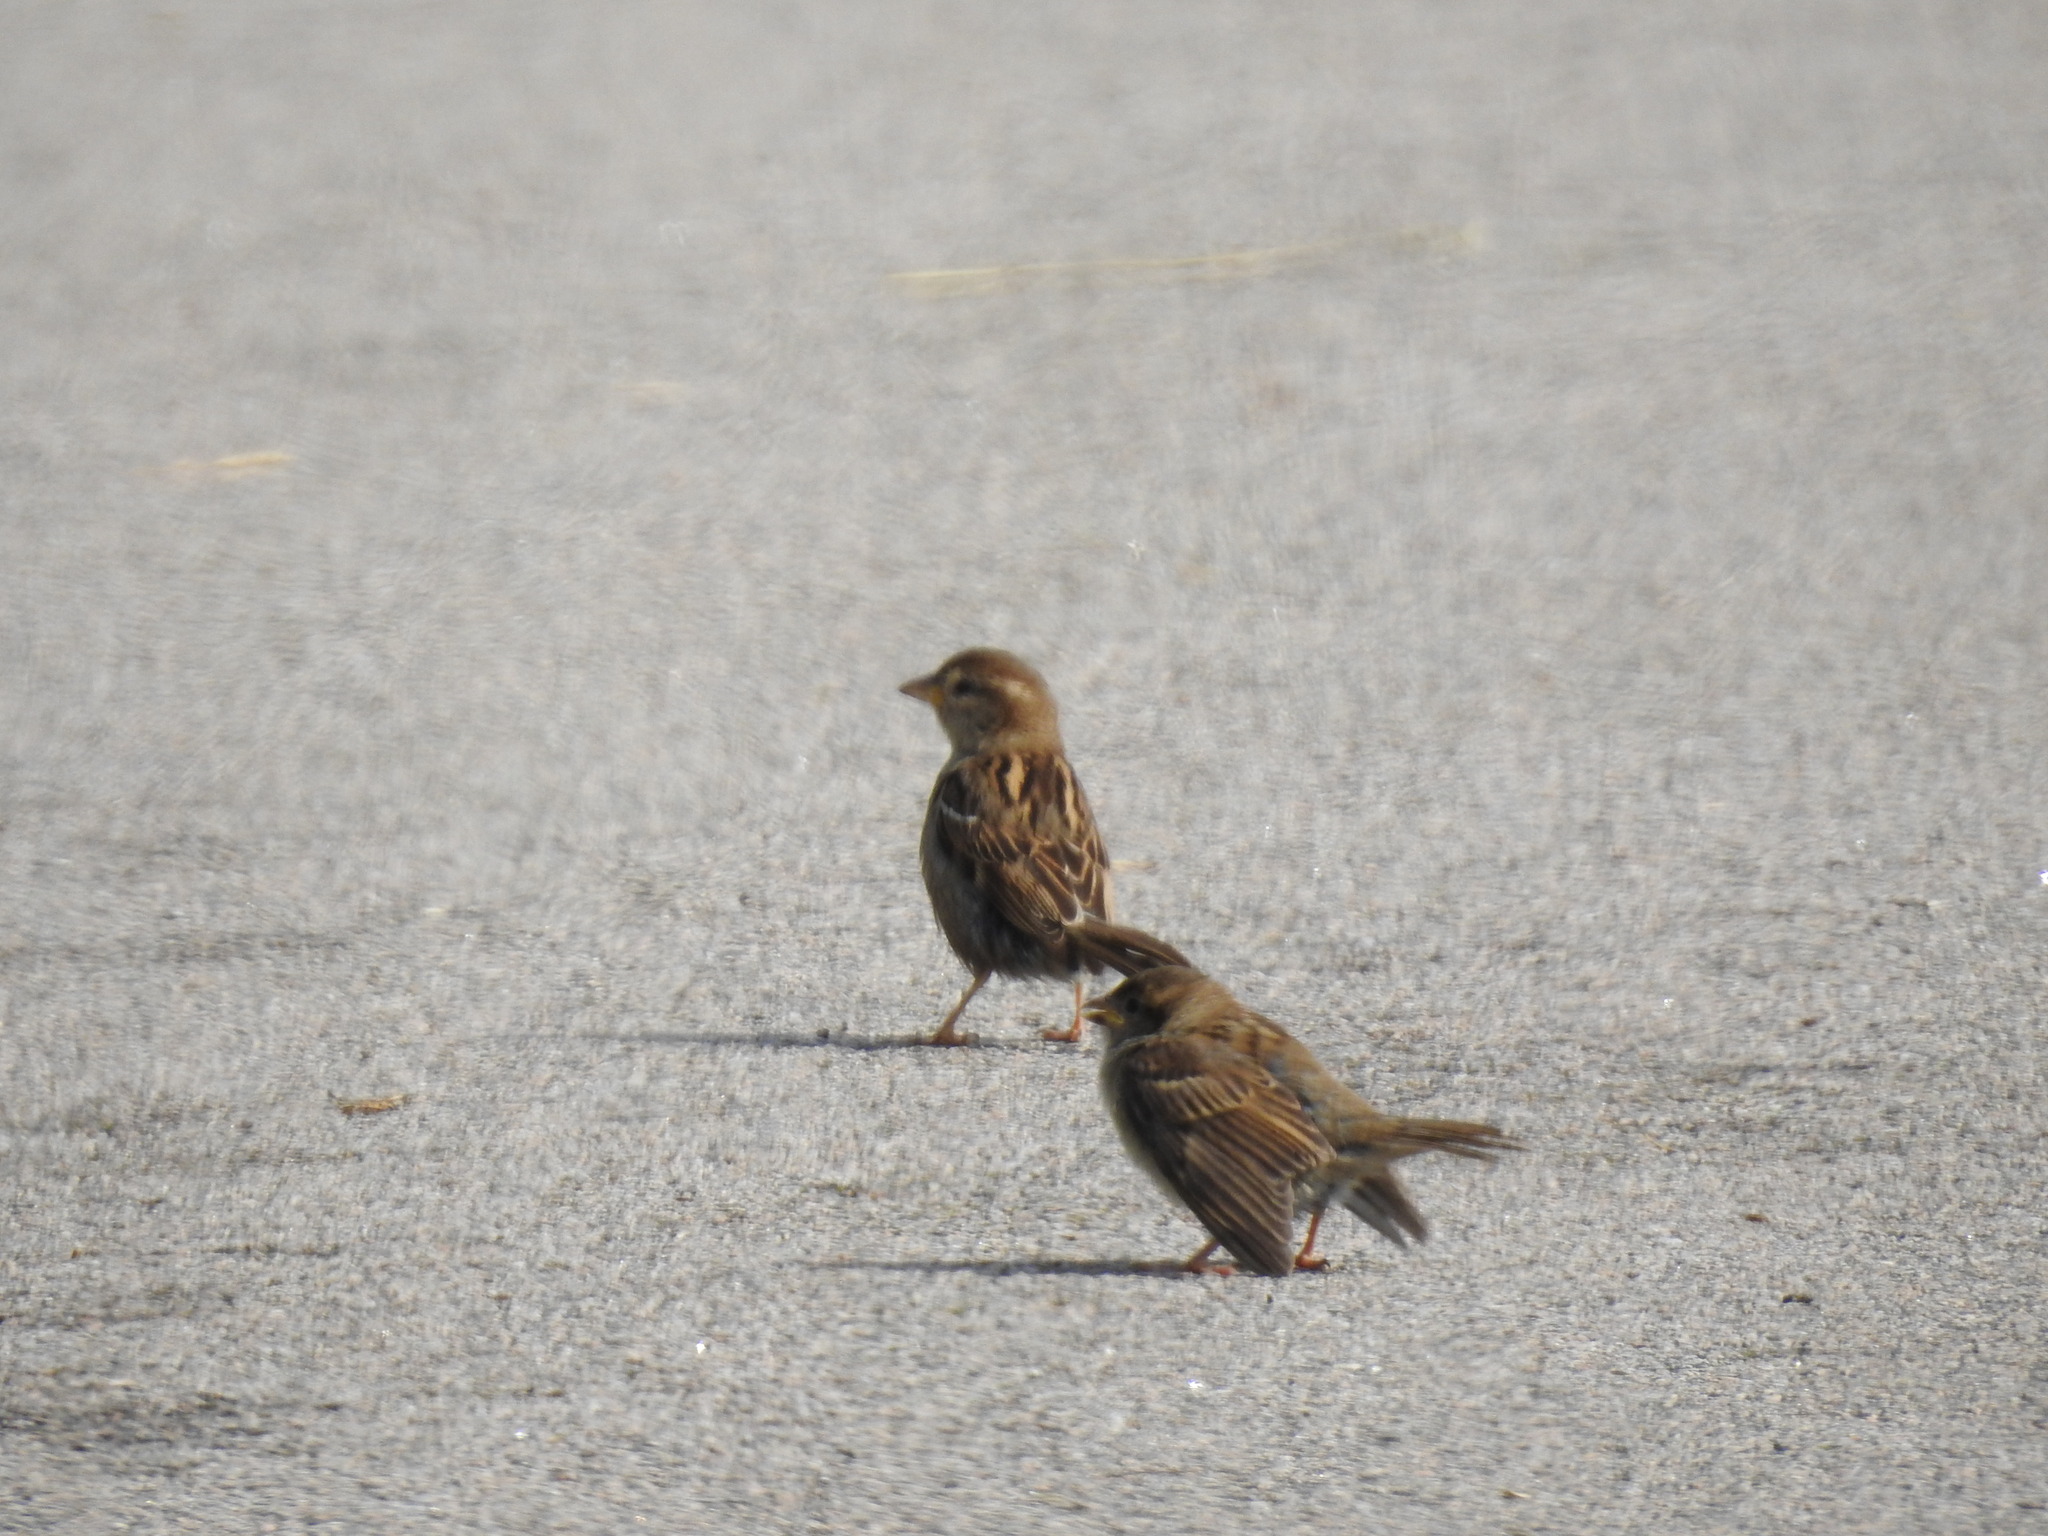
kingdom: Animalia
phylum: Chordata
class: Aves
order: Passeriformes
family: Passeridae
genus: Passer
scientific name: Passer domesticus
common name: House sparrow
